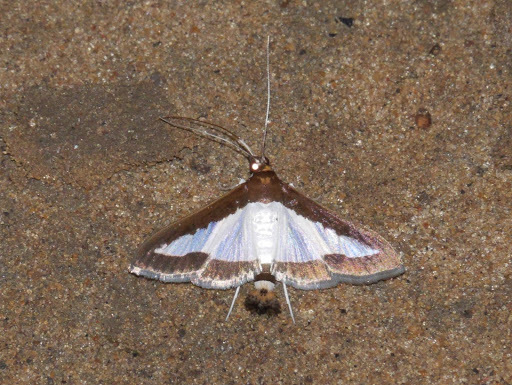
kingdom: Animalia
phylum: Arthropoda
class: Insecta
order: Lepidoptera
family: Crambidae
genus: Diaphania
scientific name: Diaphania indica
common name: Cucumber moth
